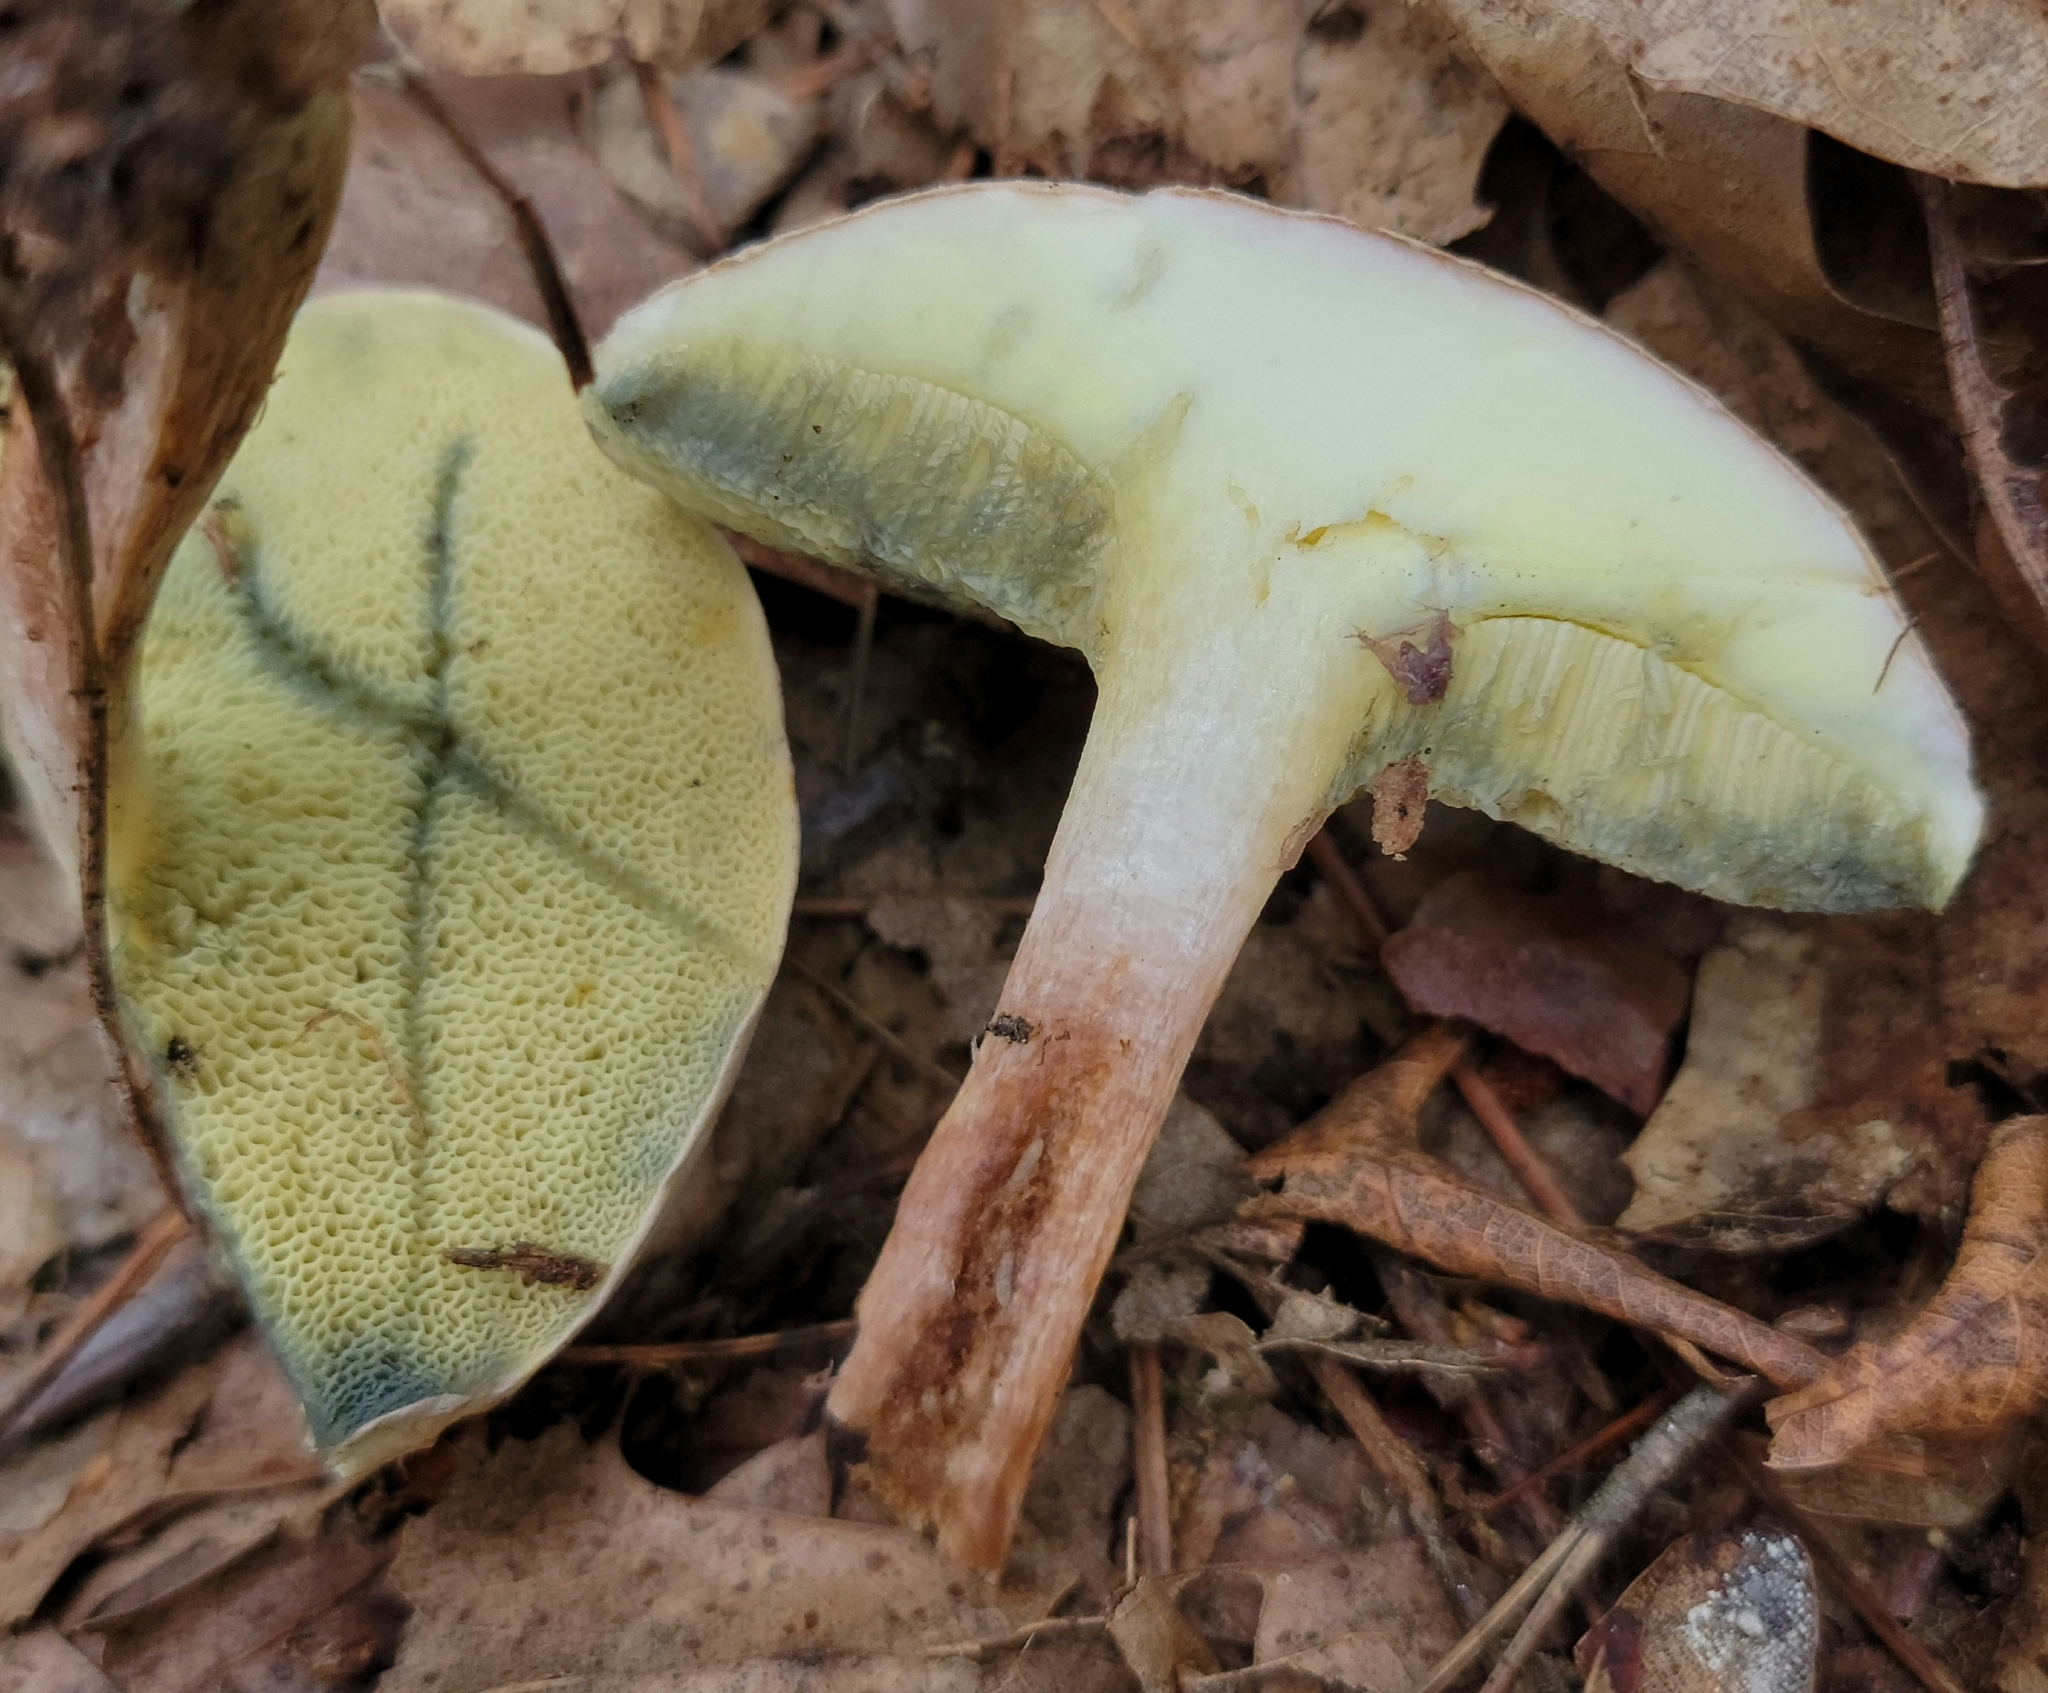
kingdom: Fungi
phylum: Basidiomycota
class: Agaricomycetes
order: Boletales
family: Boletaceae
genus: Imleria
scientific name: Imleria pallida
